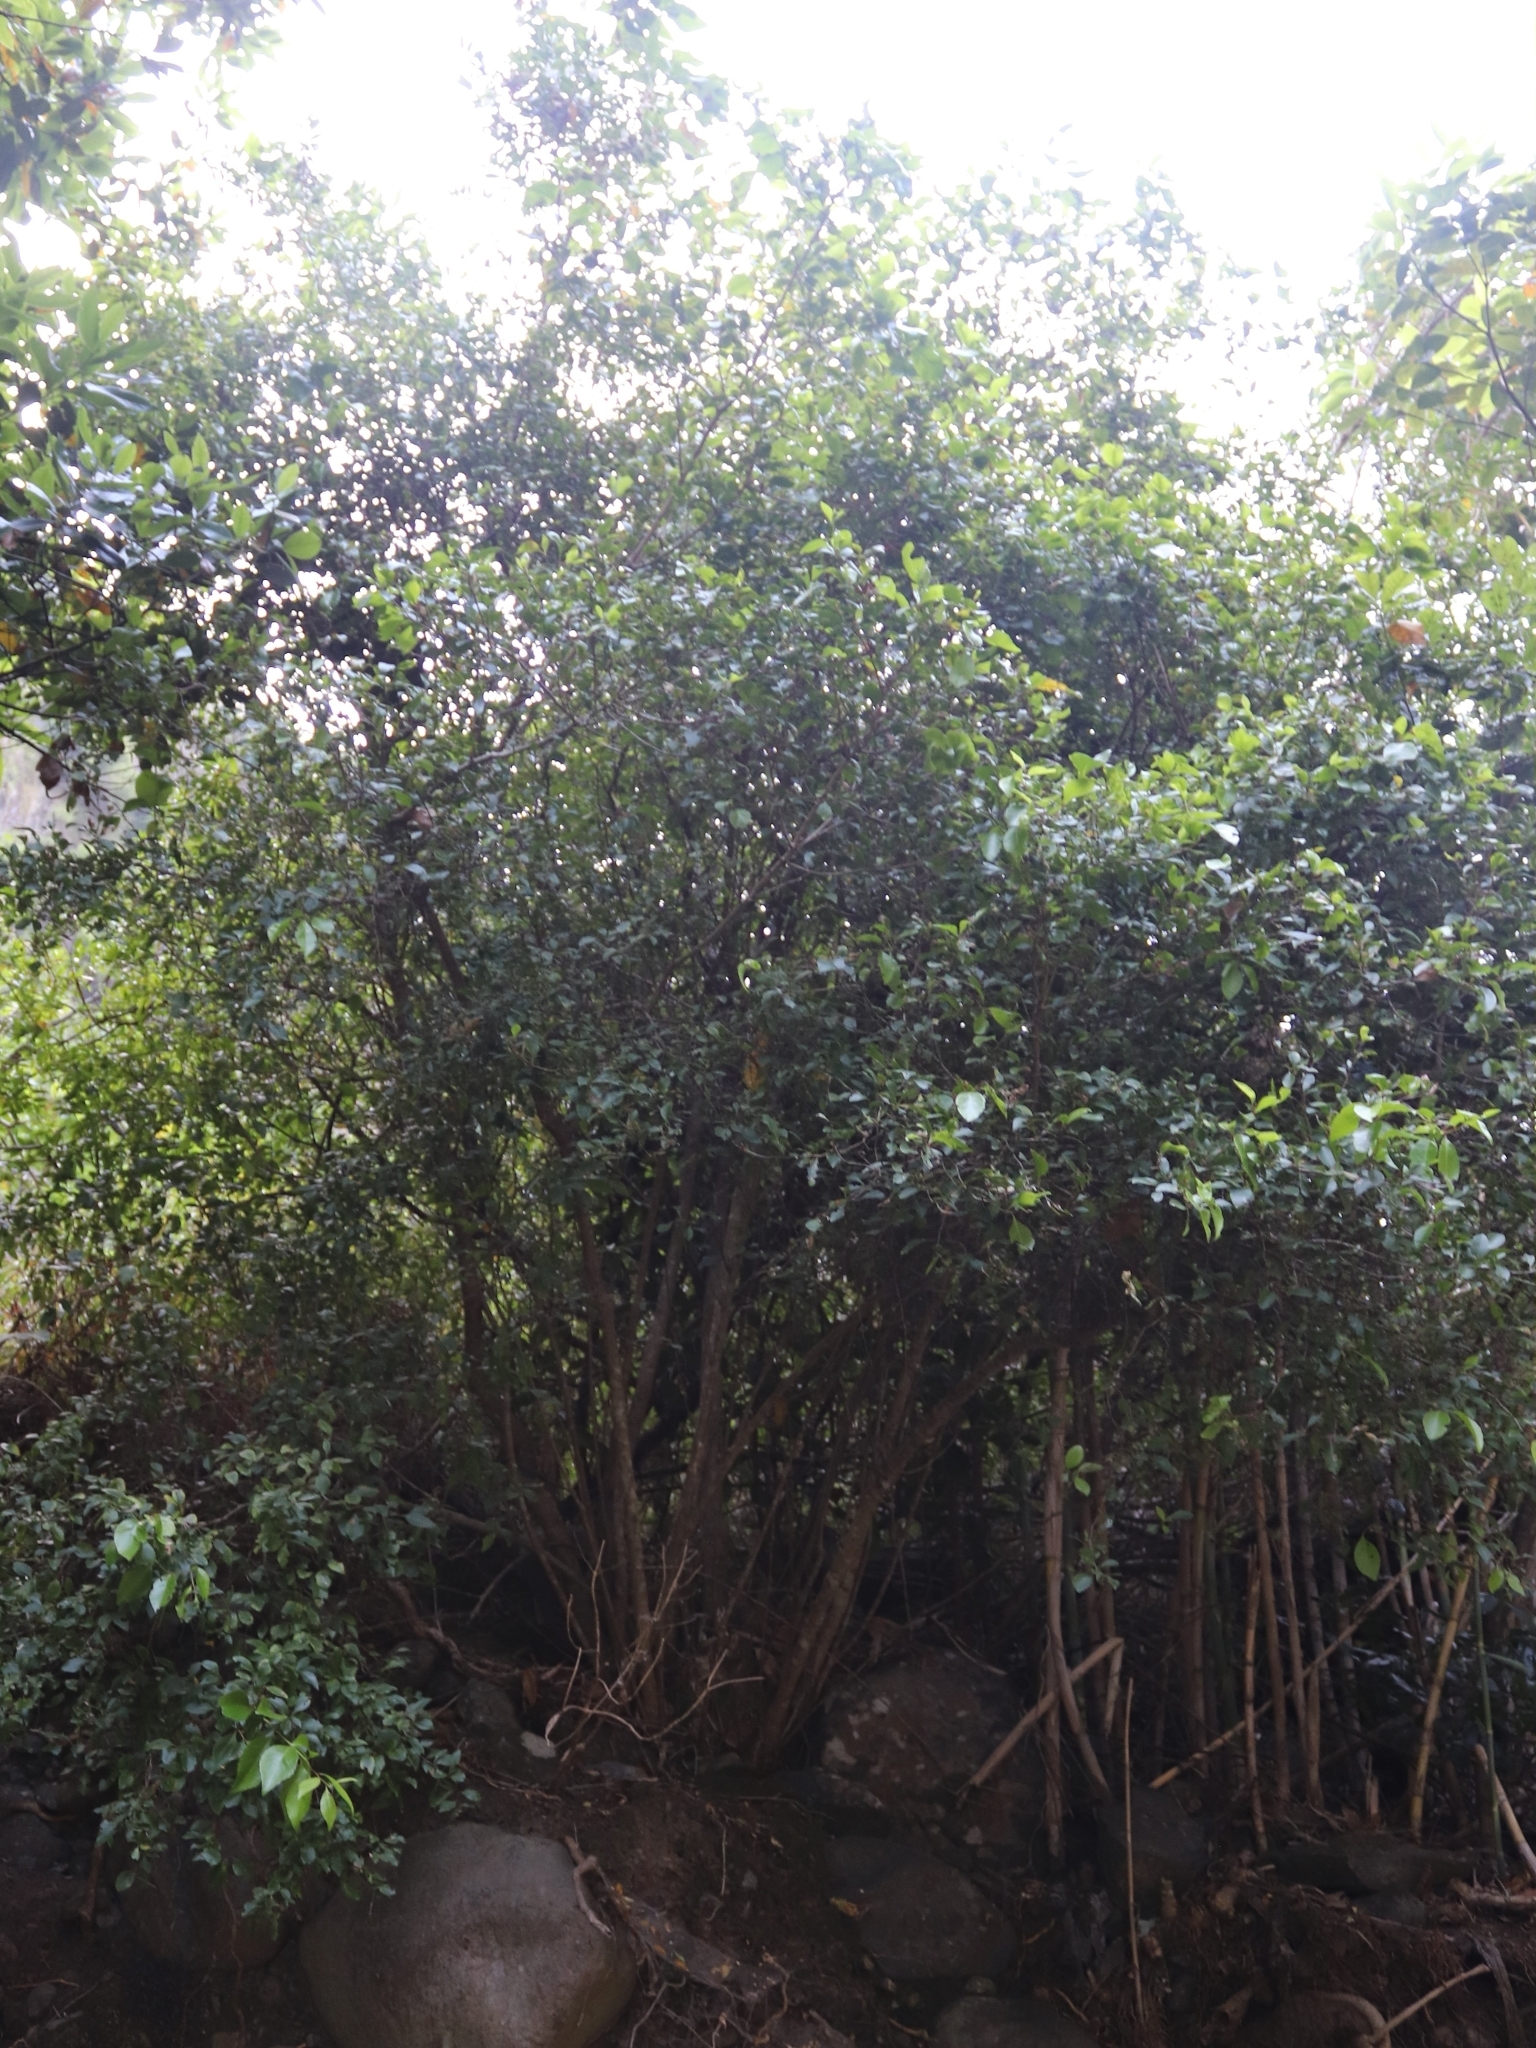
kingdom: Plantae
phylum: Tracheophyta
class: Magnoliopsida
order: Celastrales
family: Celastraceae
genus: Gymnosporia
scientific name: Gymnosporia dryandri
